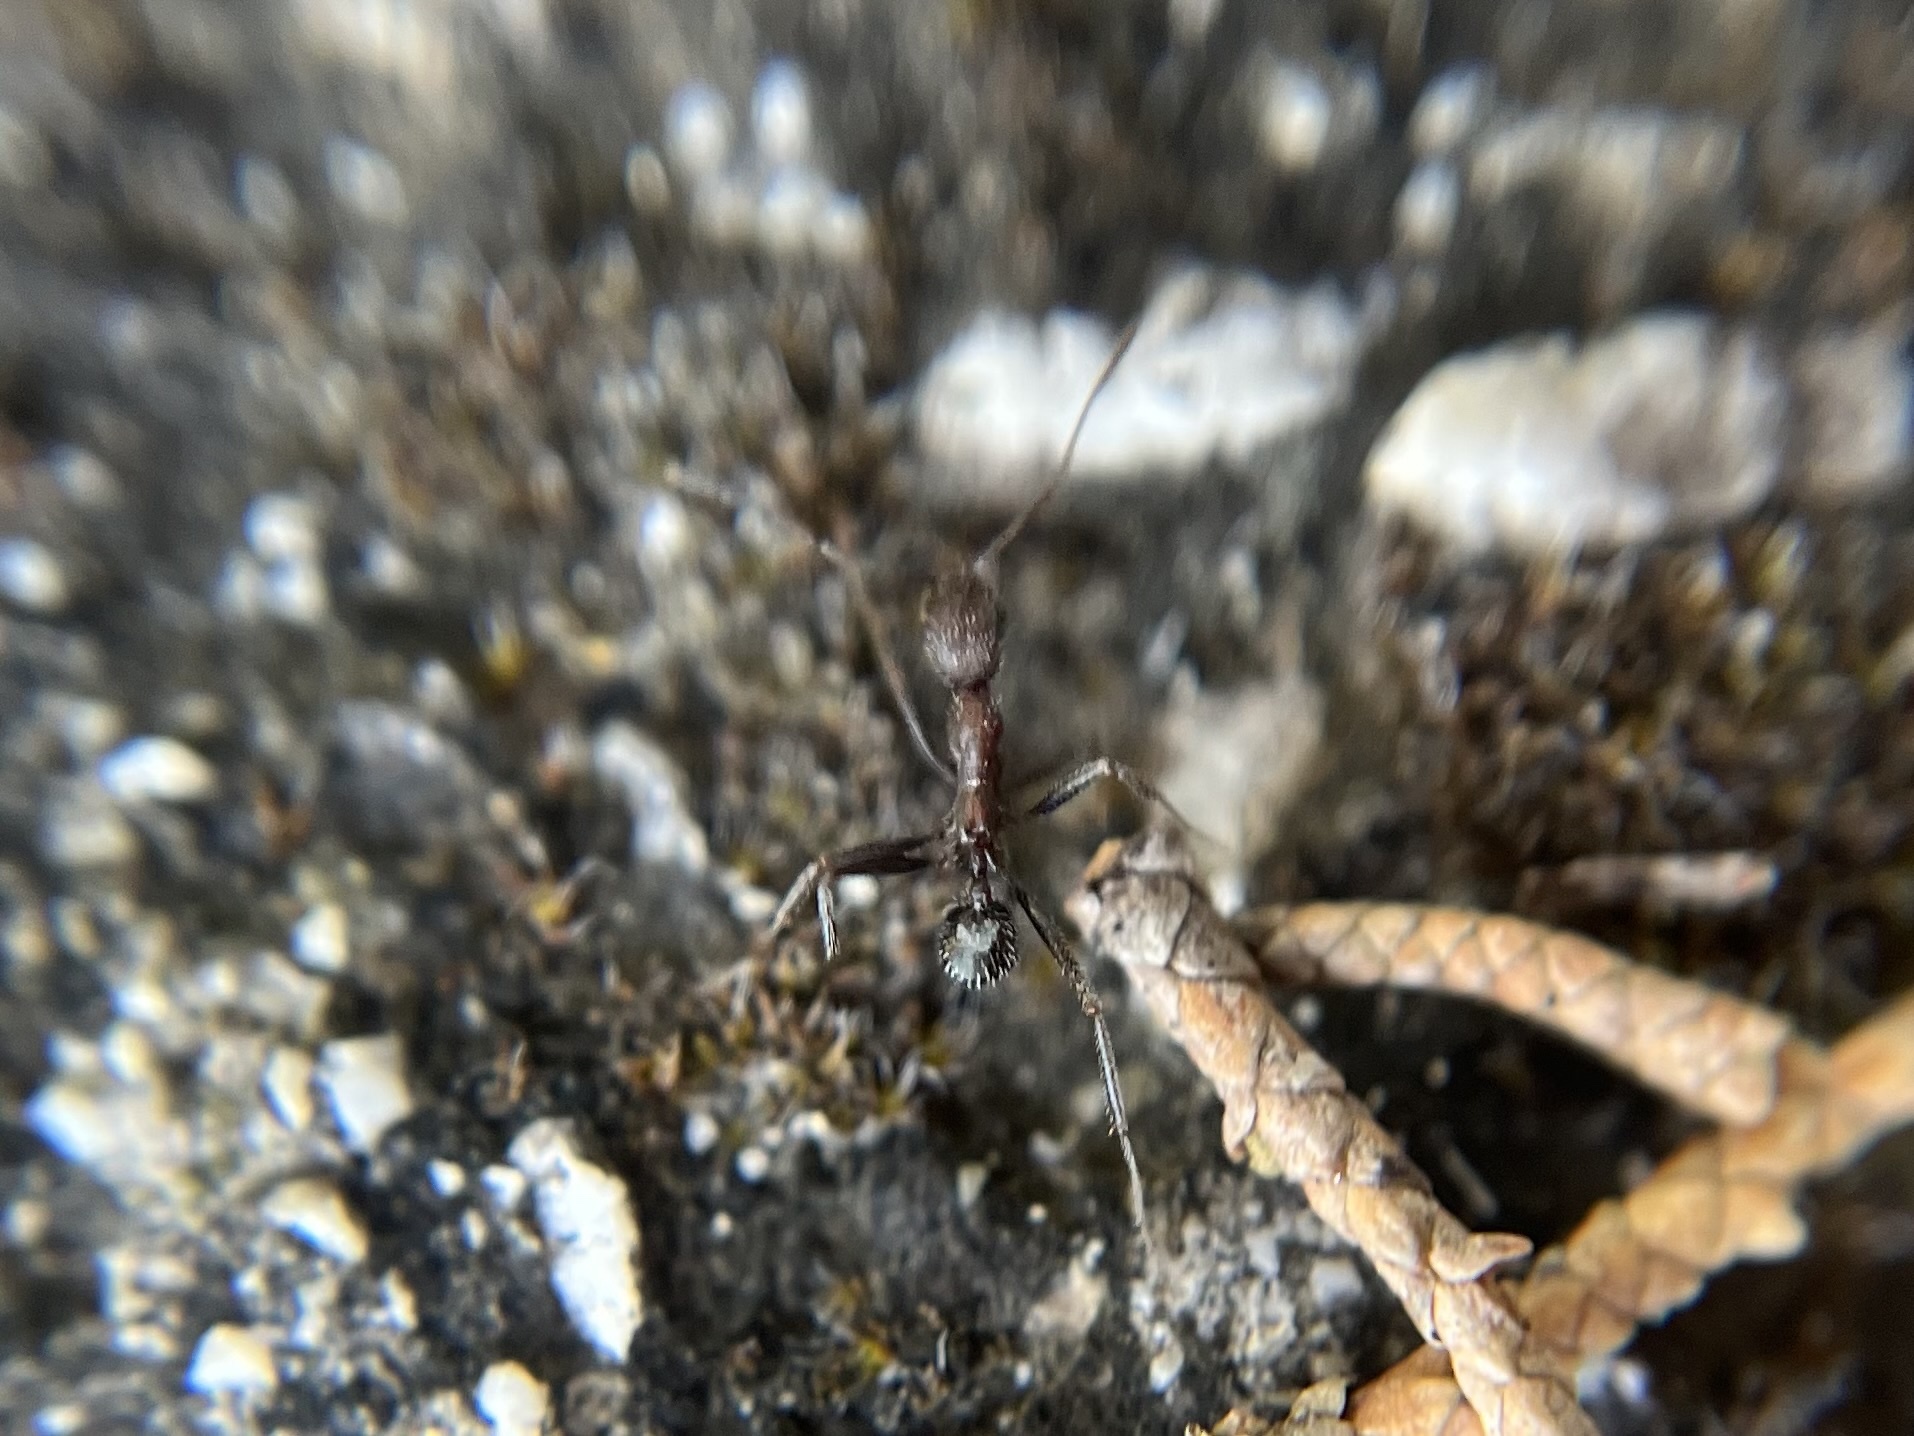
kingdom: Animalia
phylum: Arthropoda
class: Insecta
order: Hymenoptera
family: Formicidae
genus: Aphaenogaster
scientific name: Aphaenogaster
